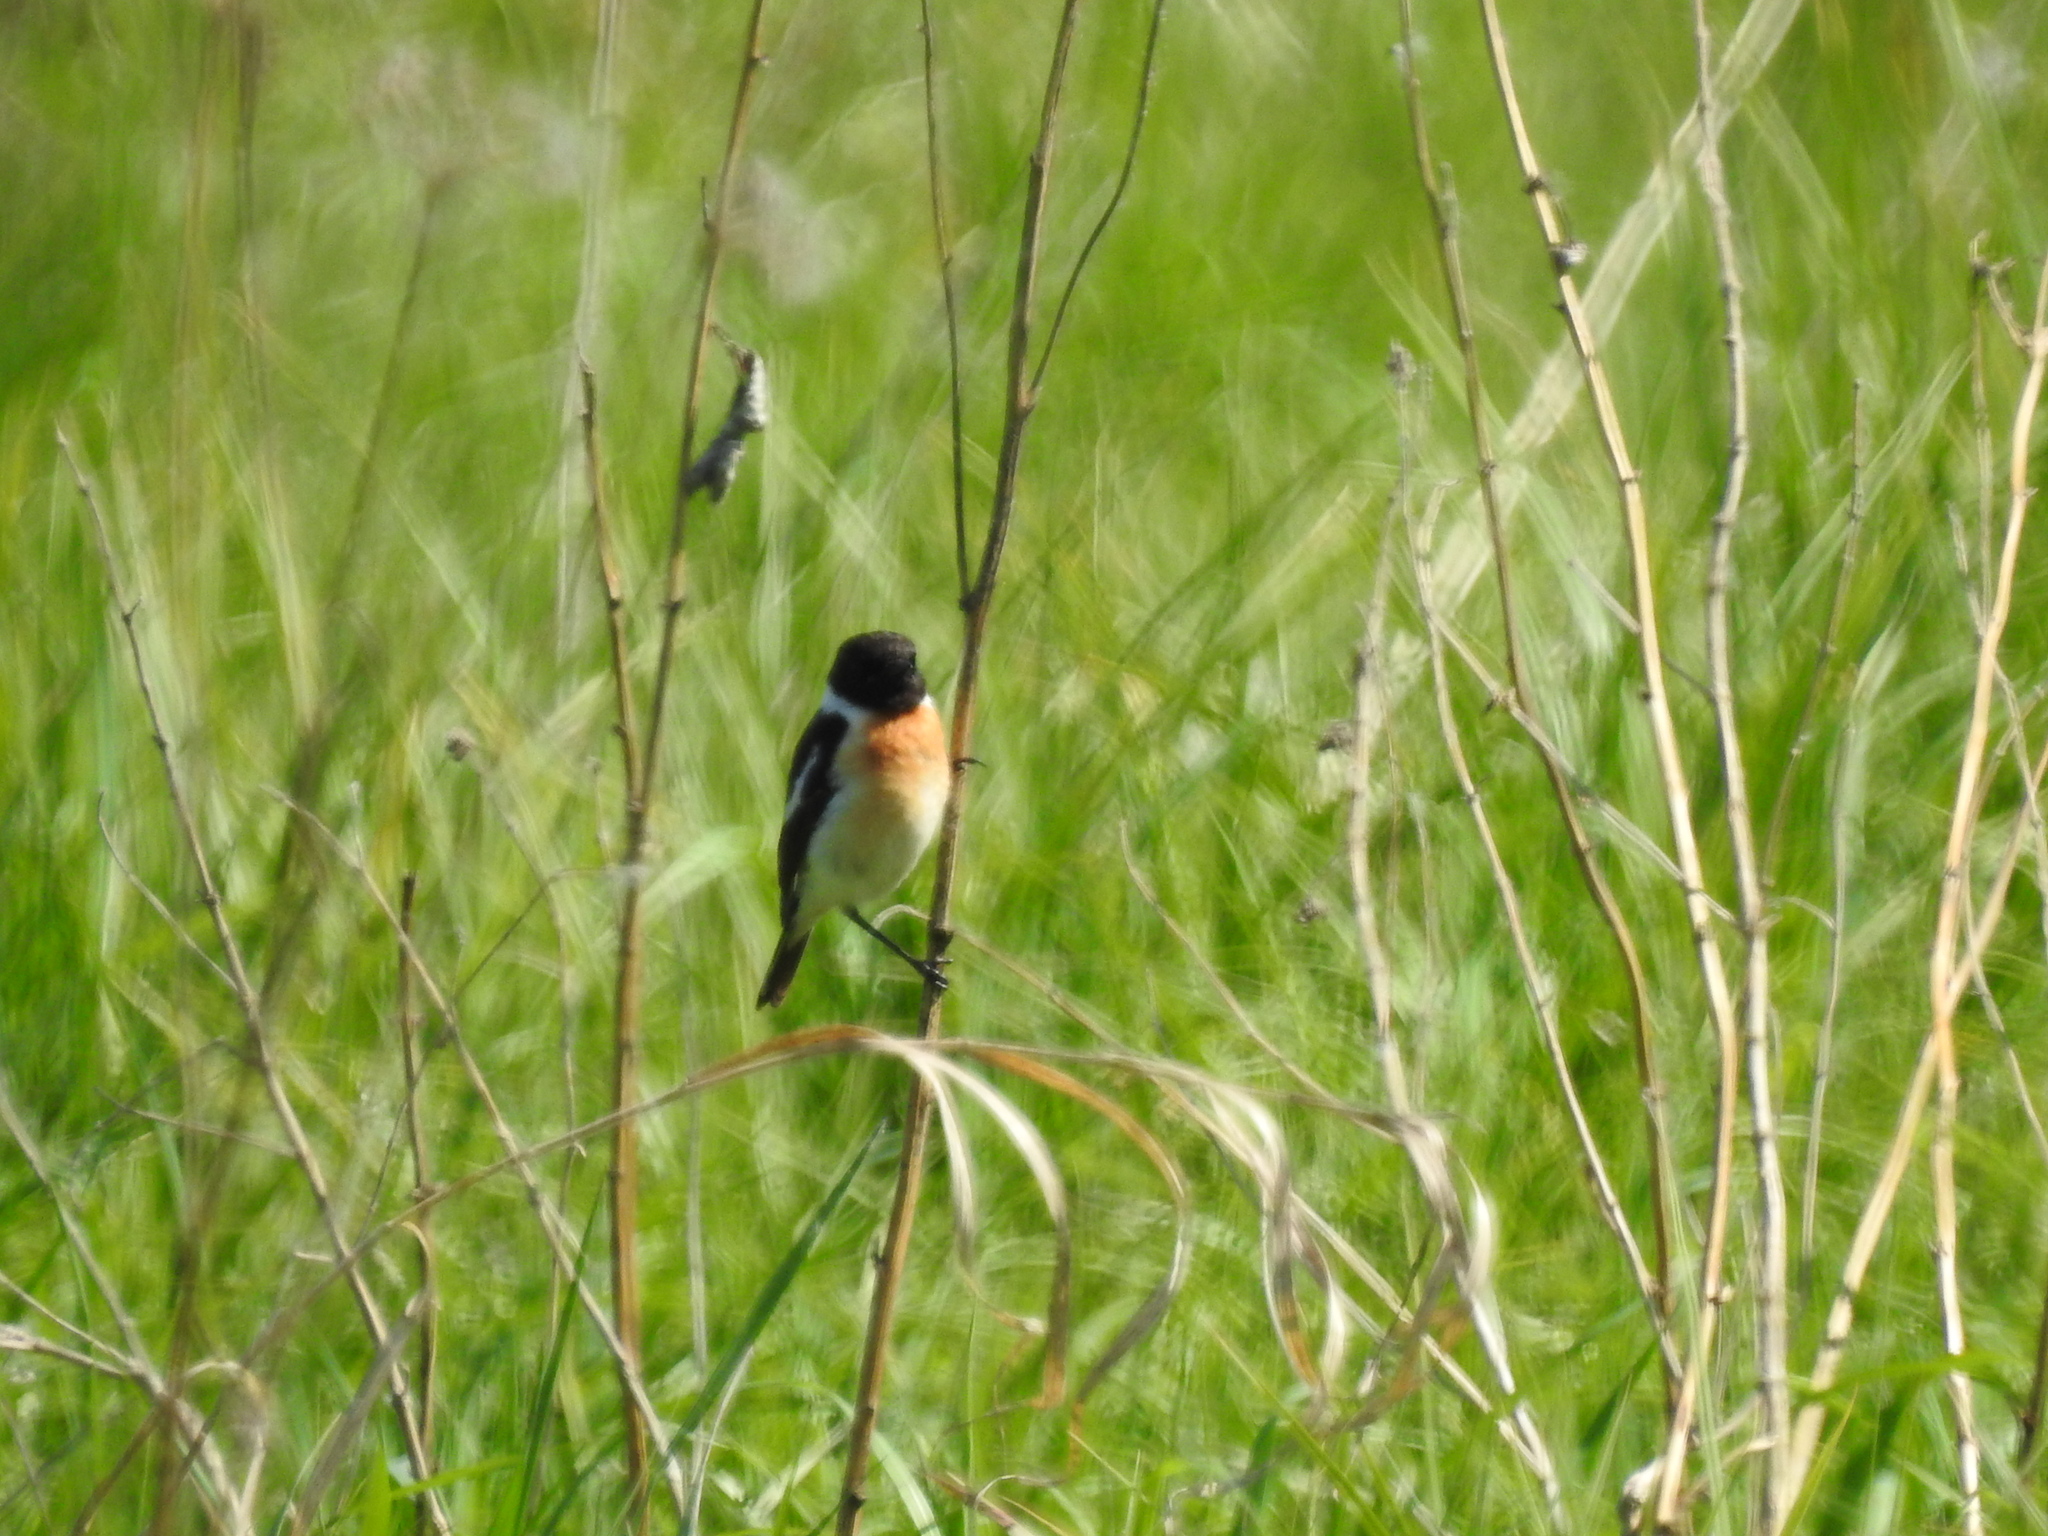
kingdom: Animalia
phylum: Chordata
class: Aves
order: Passeriformes
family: Muscicapidae
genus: Saxicola
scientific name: Saxicola maurus
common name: Siberian stonechat
